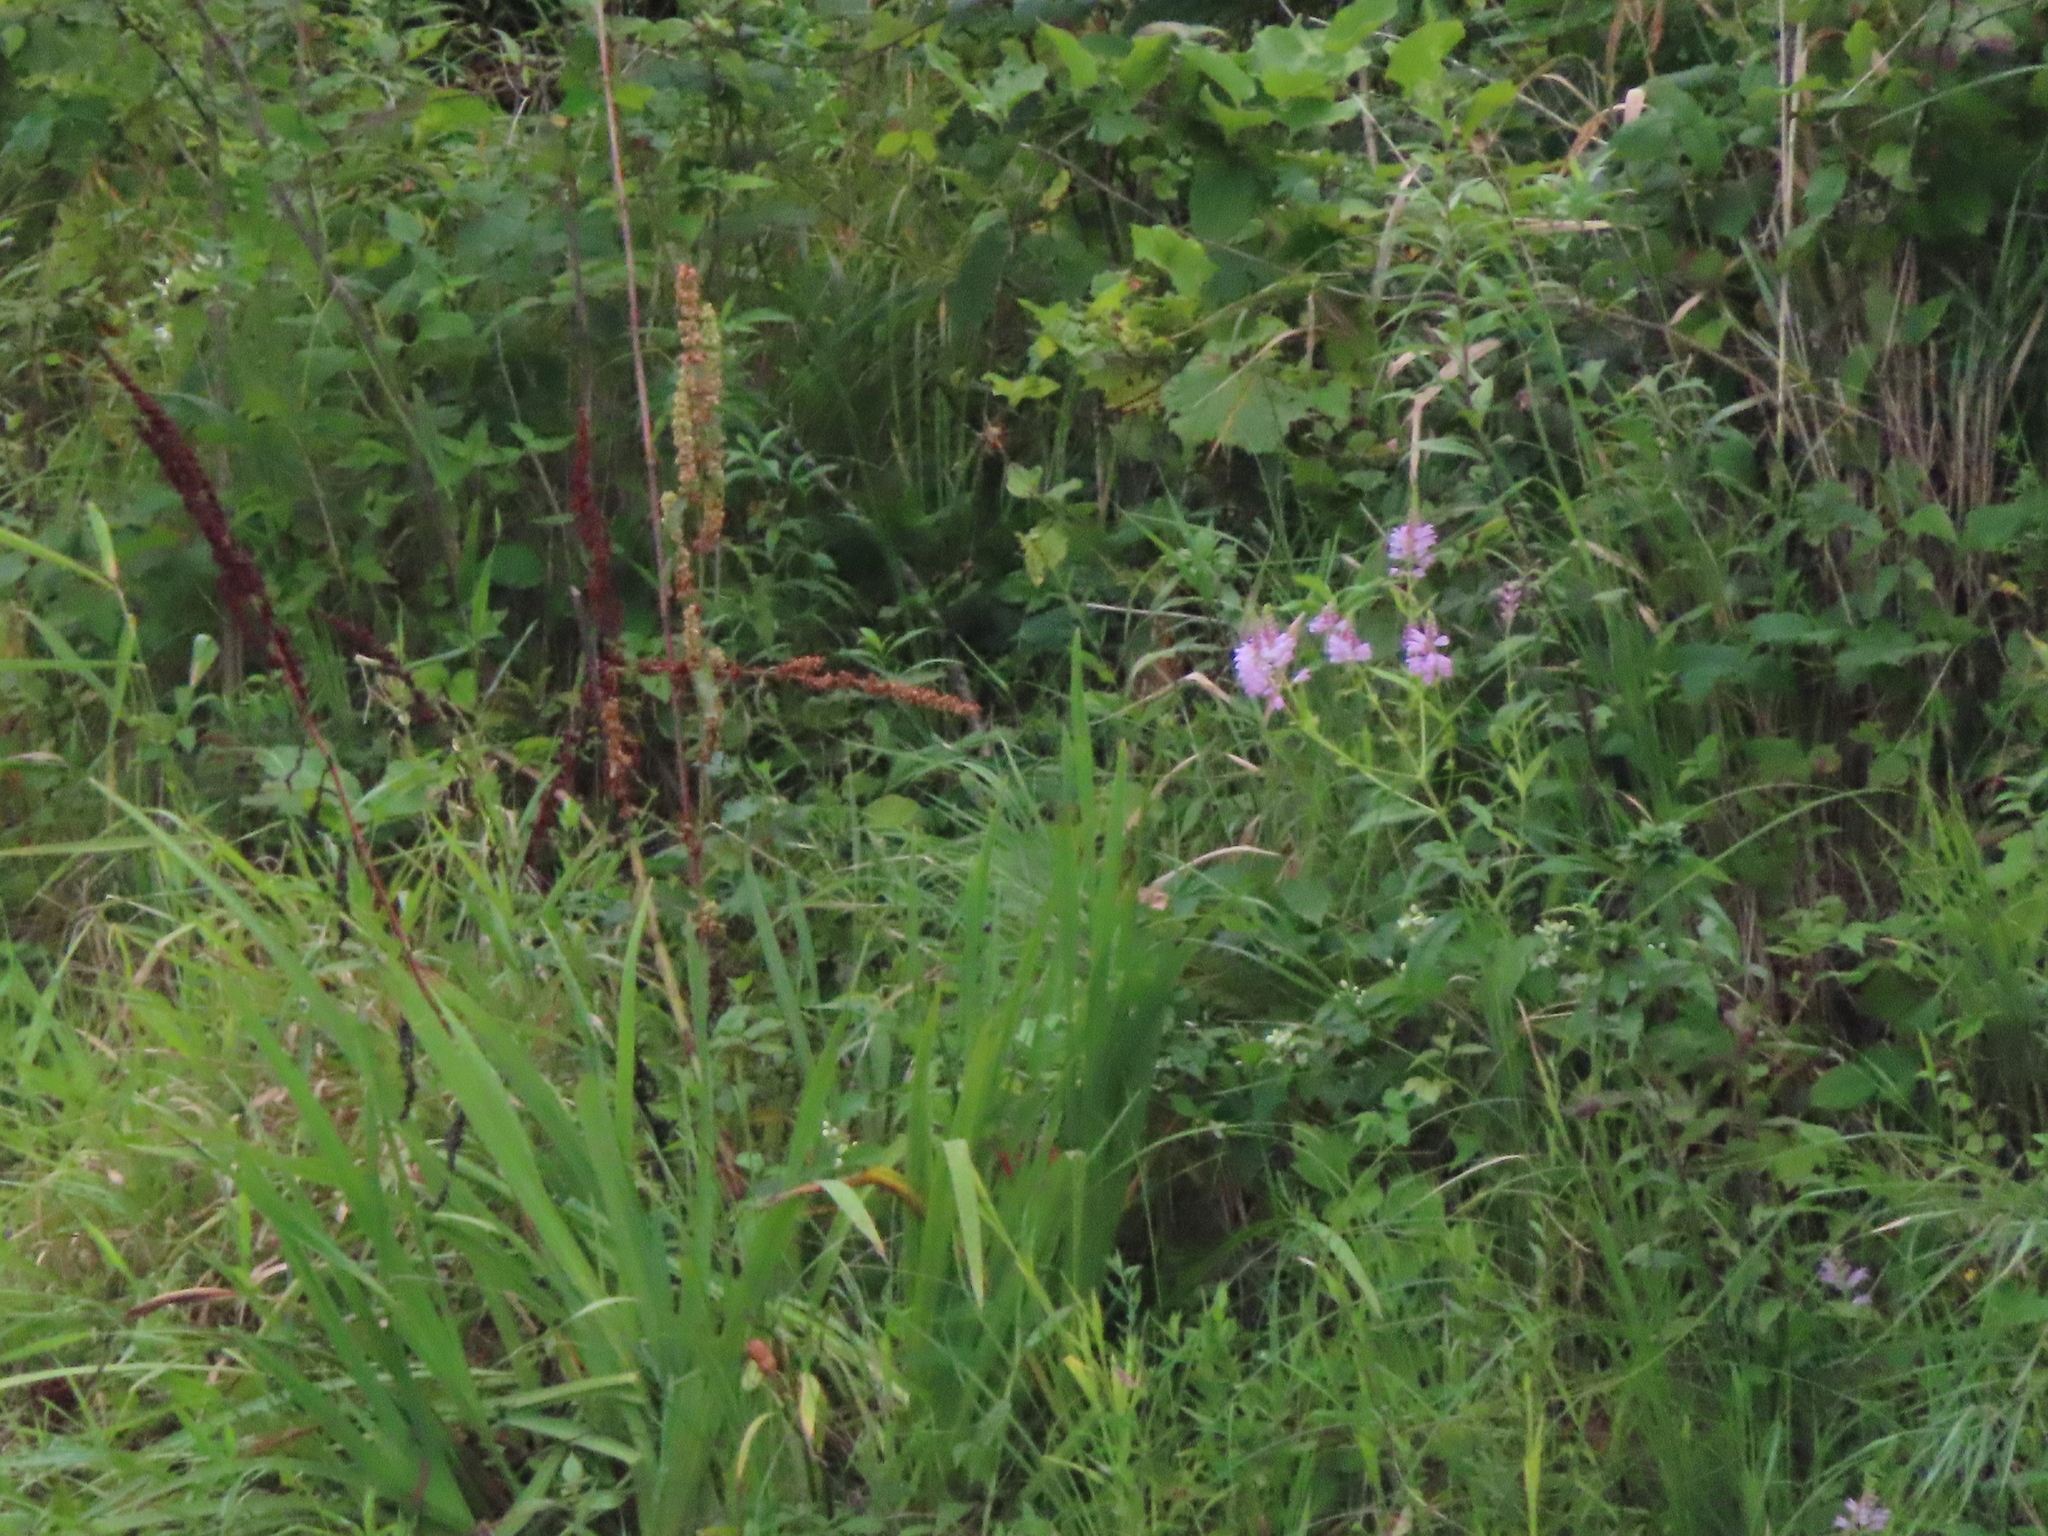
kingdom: Plantae
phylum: Tracheophyta
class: Magnoliopsida
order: Lamiales
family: Lamiaceae
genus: Physostegia
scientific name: Physostegia virginiana
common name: Obedient-plant
